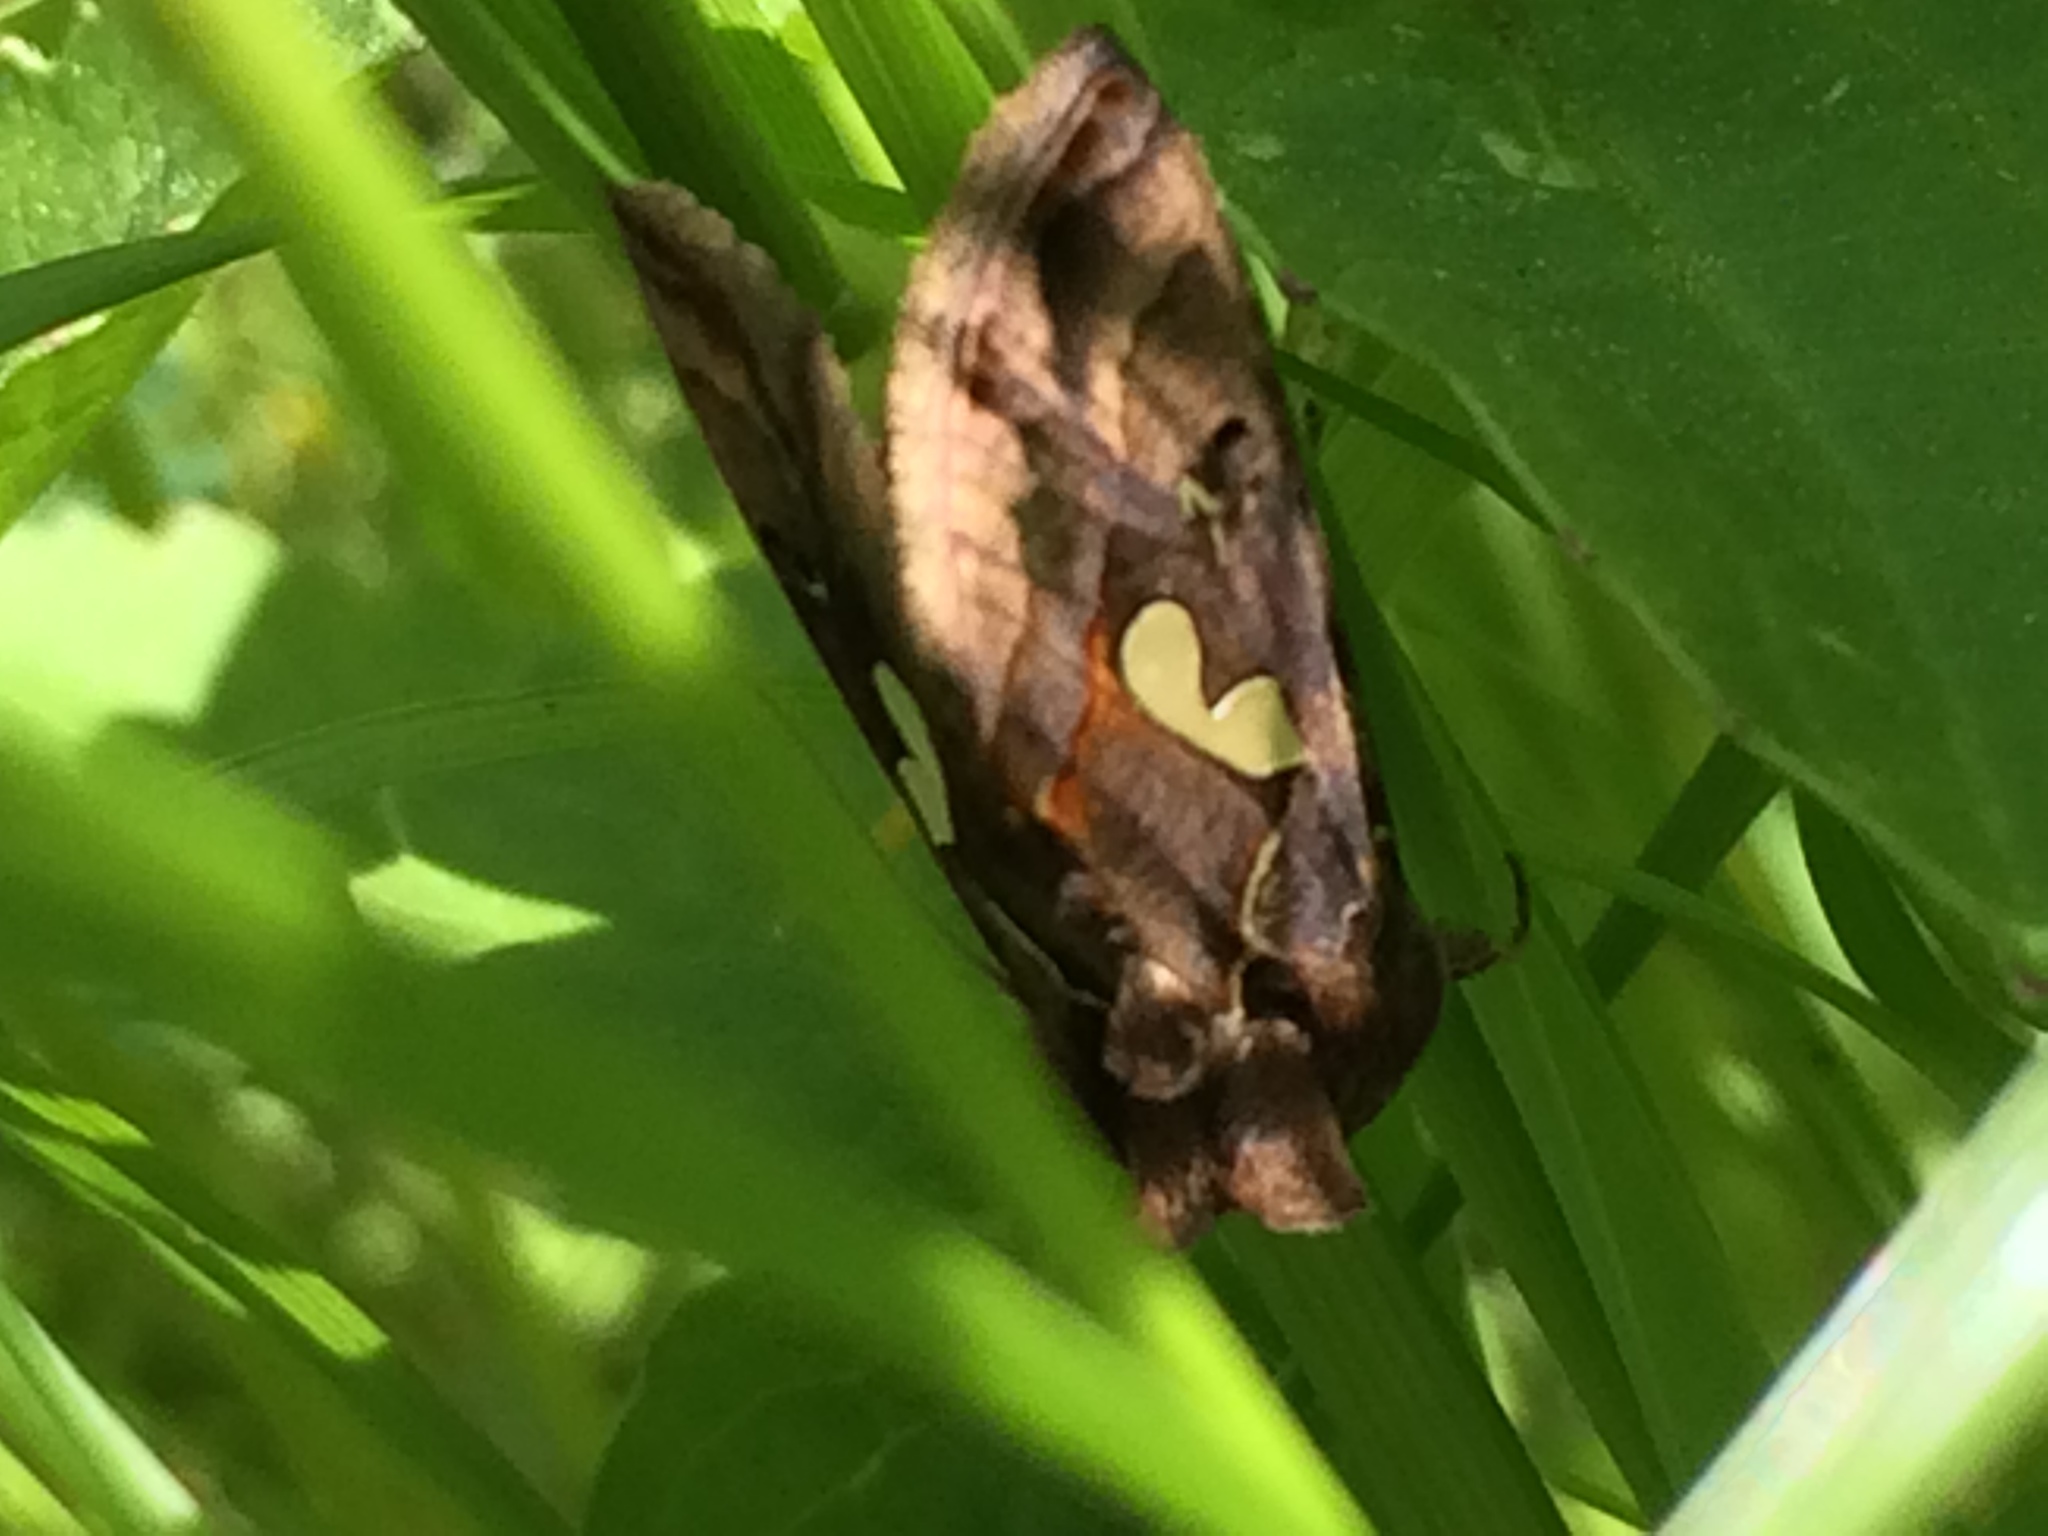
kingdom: Animalia
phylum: Arthropoda
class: Insecta
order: Lepidoptera
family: Noctuidae
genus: Megalographa
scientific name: Megalographa biloba
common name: Cutworm
